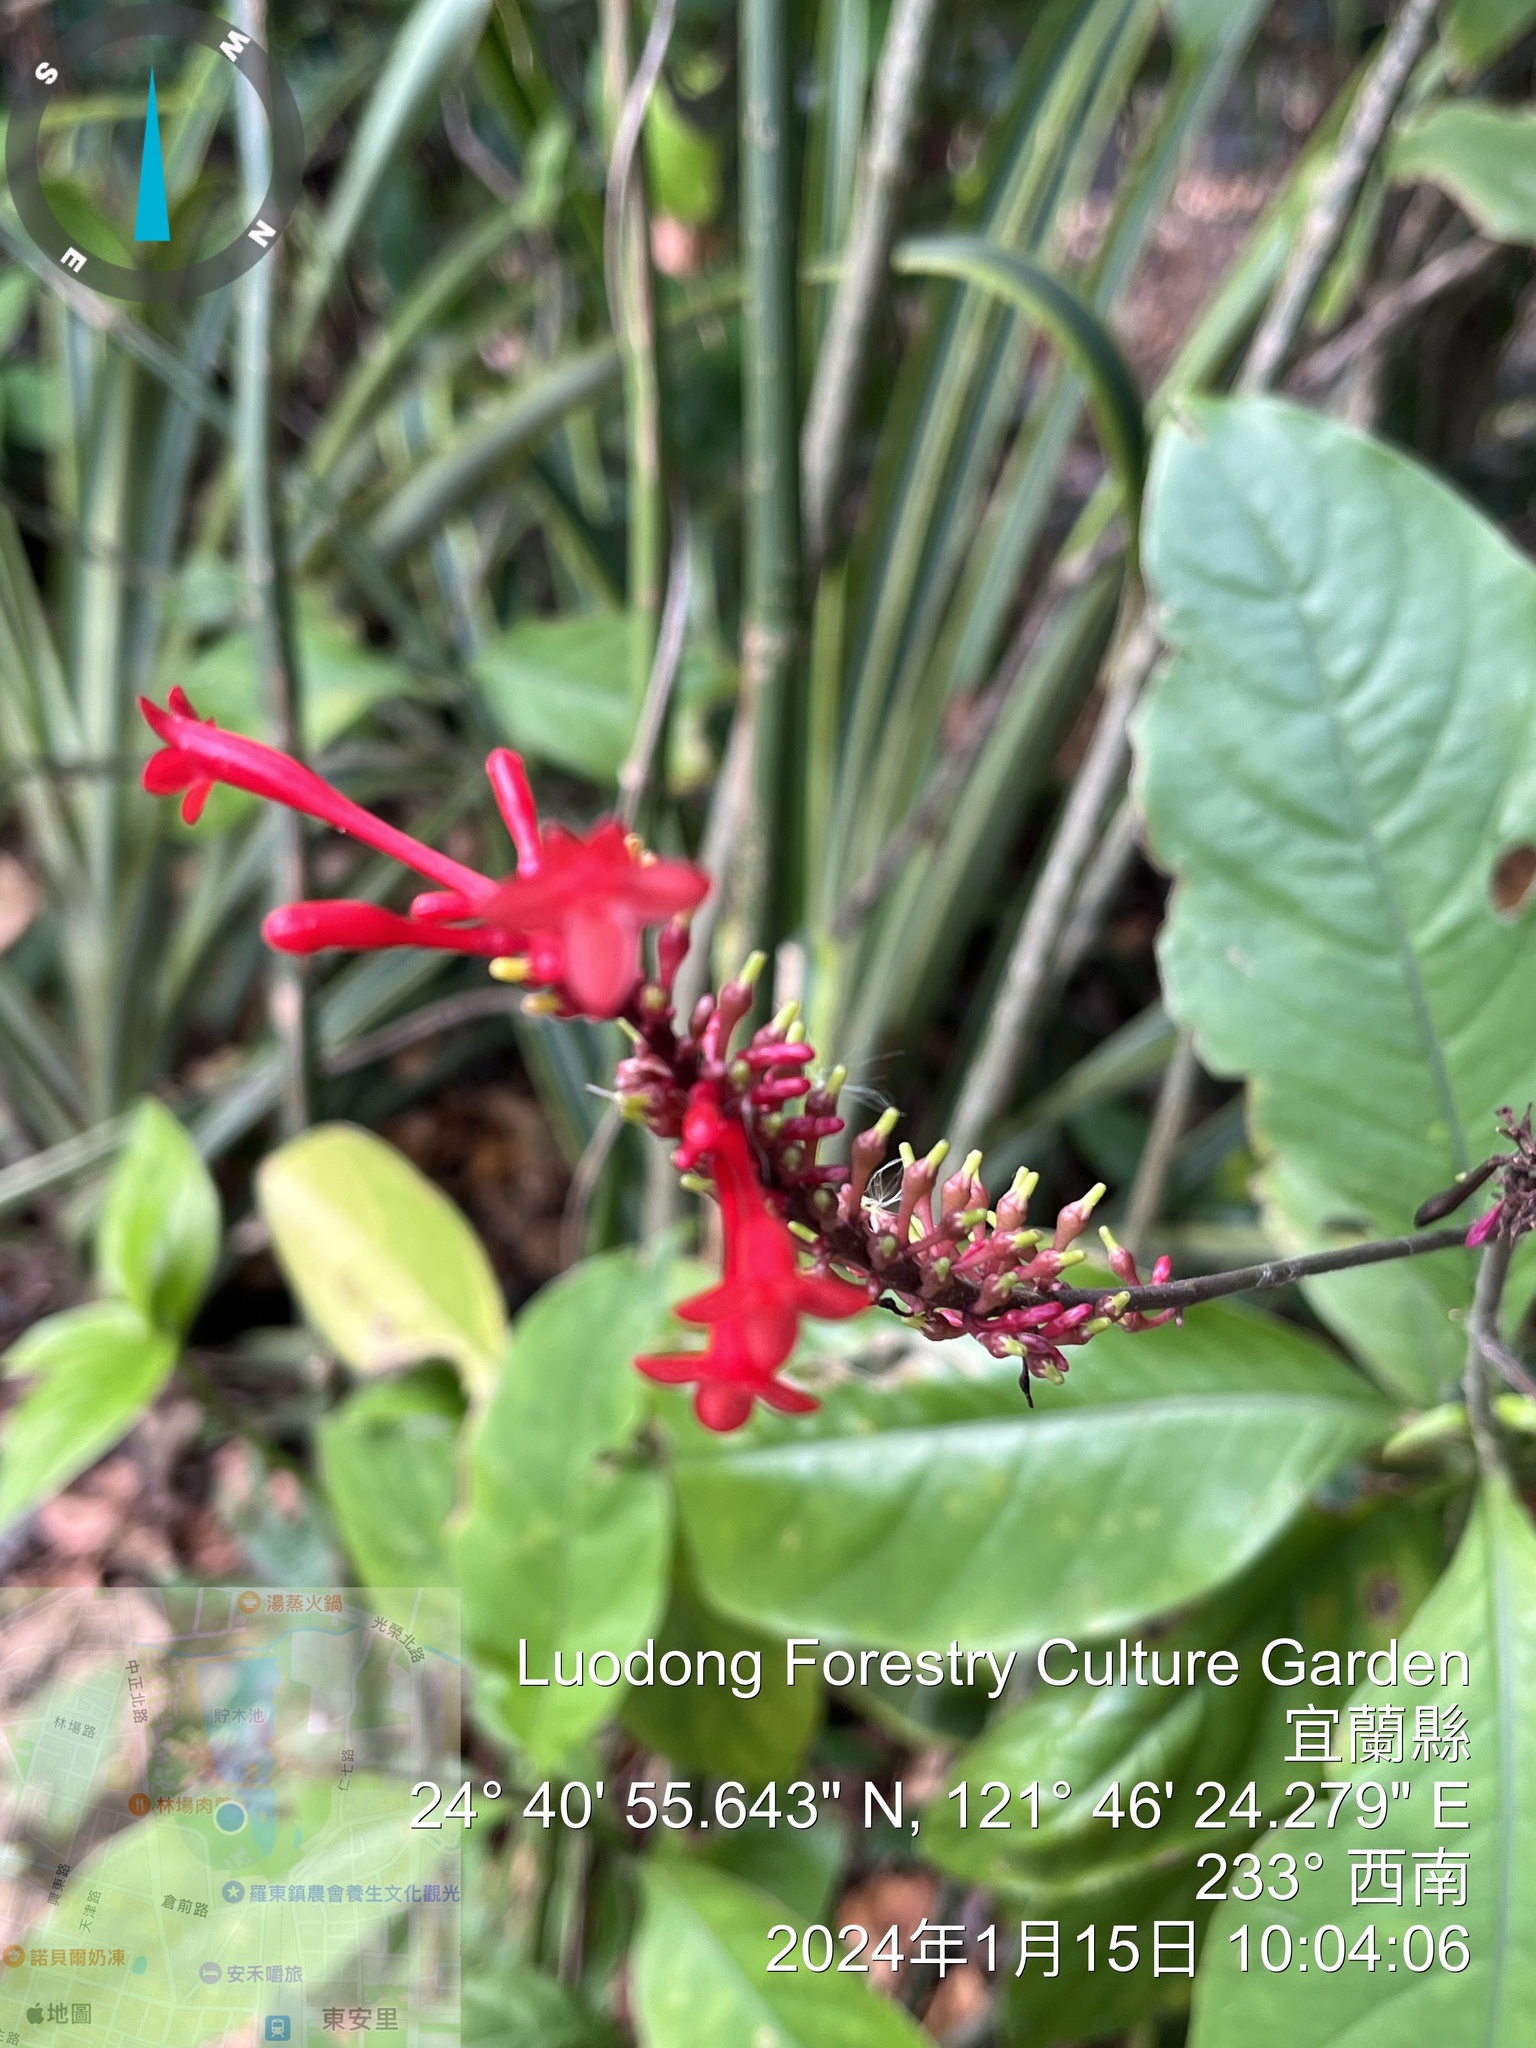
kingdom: Plantae
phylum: Tracheophyta
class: Magnoliopsida
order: Lamiales
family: Acanthaceae
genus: Odontonema
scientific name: Odontonema tubaeforme
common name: Firespike
